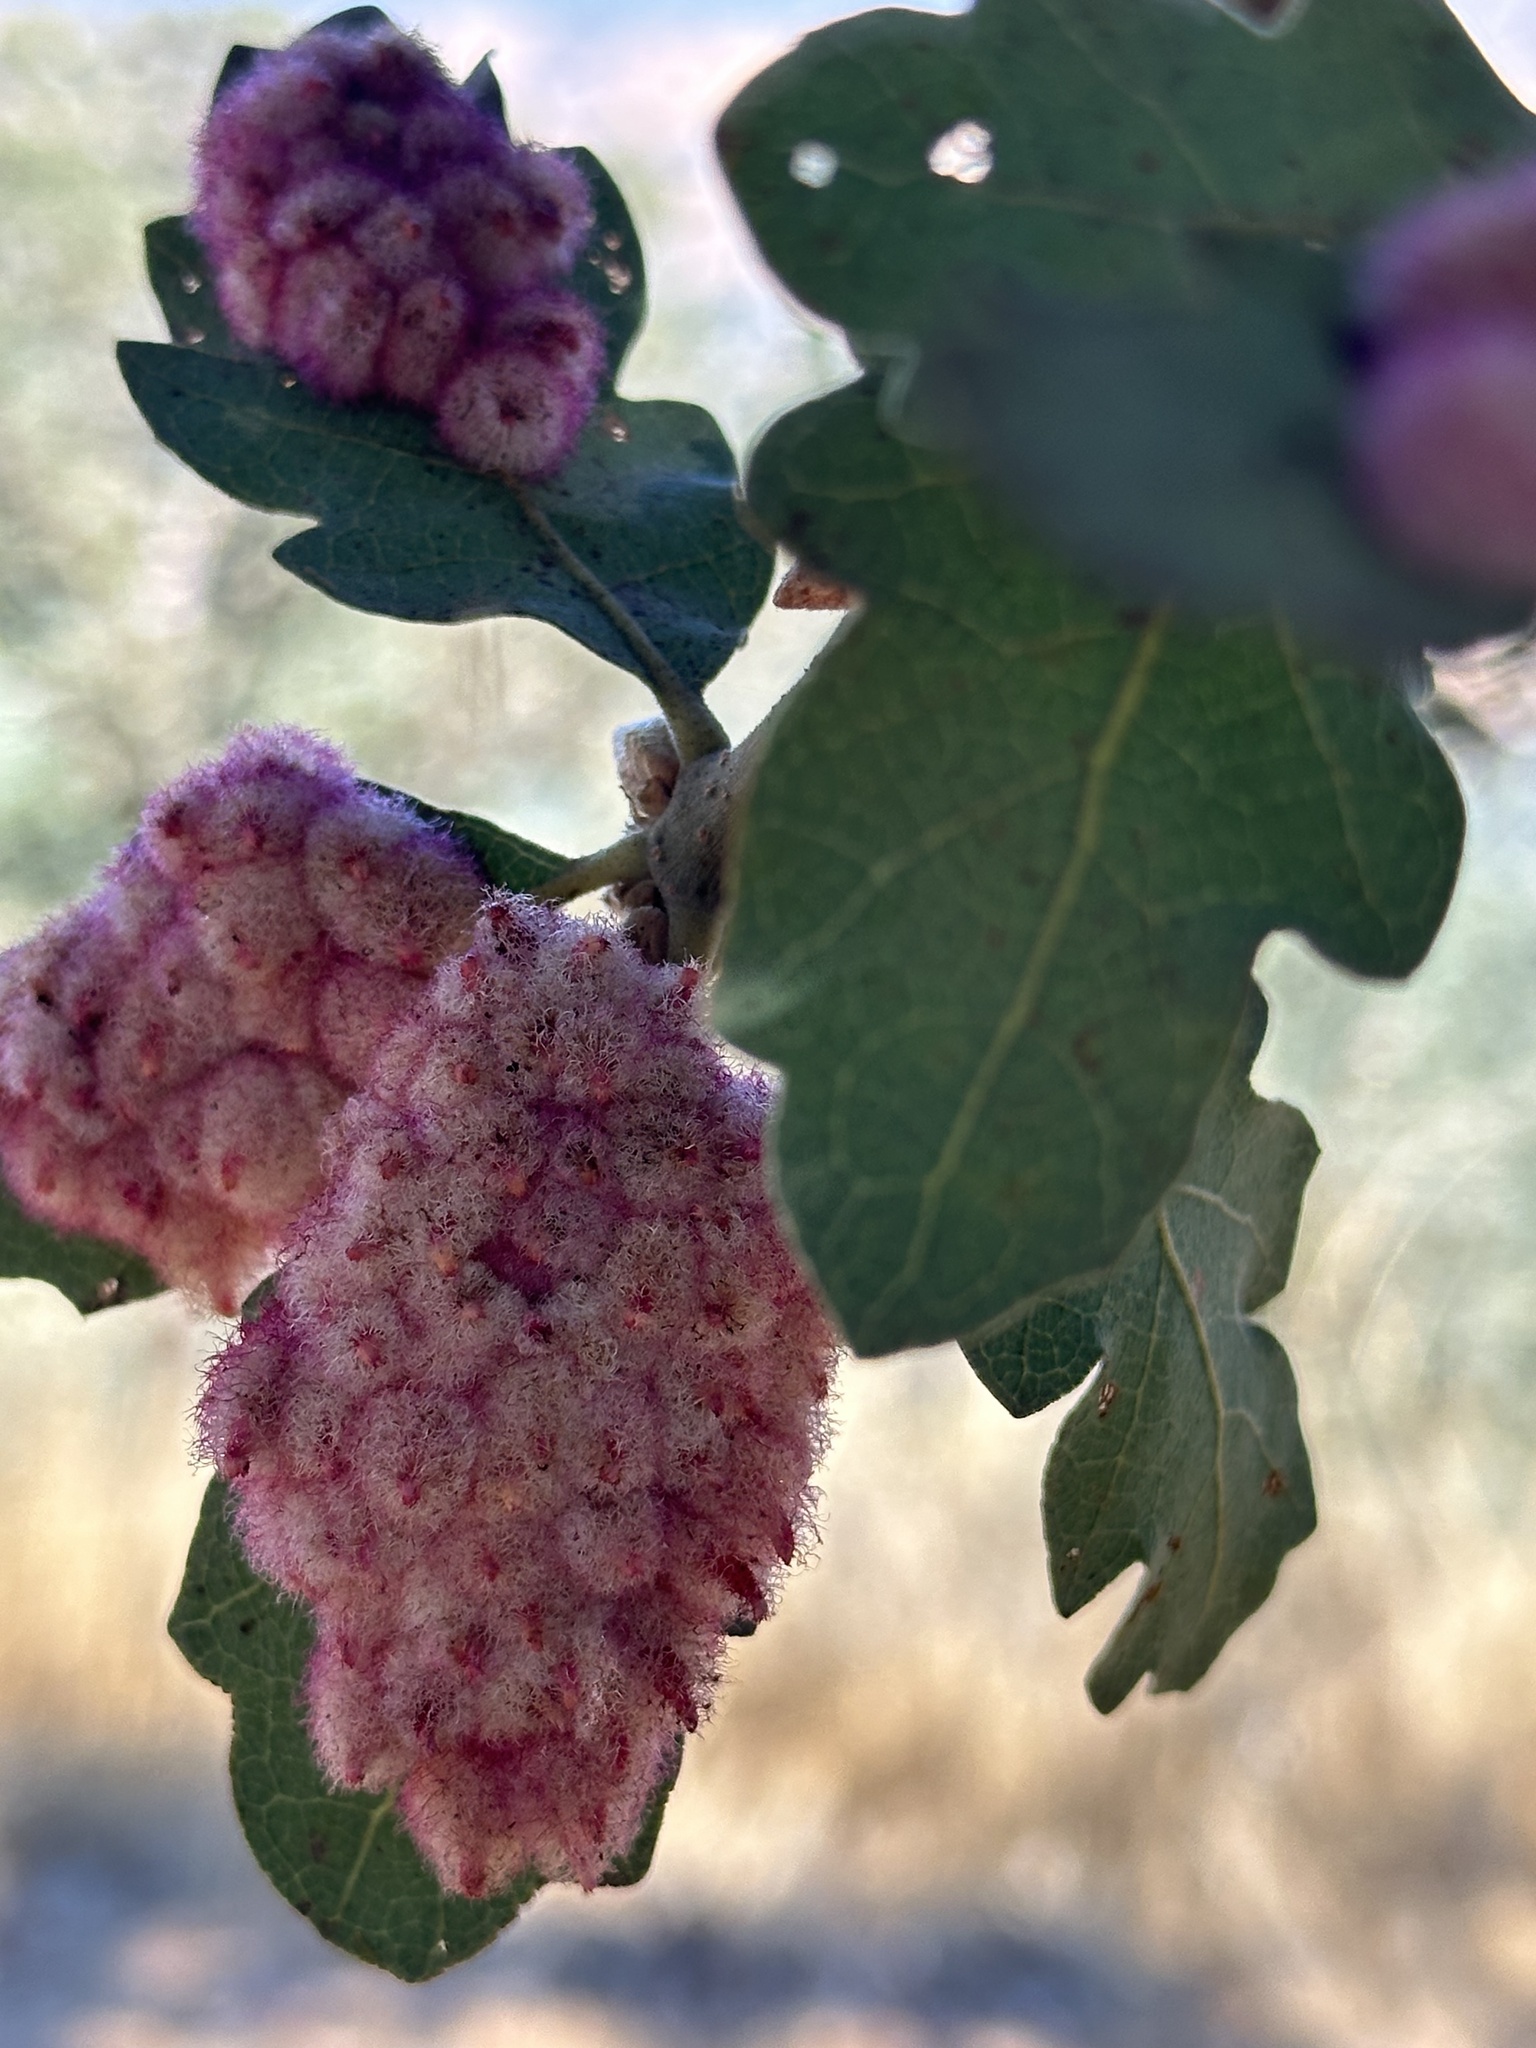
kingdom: Animalia
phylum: Arthropoda
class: Insecta
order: Hymenoptera
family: Cynipidae
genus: Andricus
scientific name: Andricus
